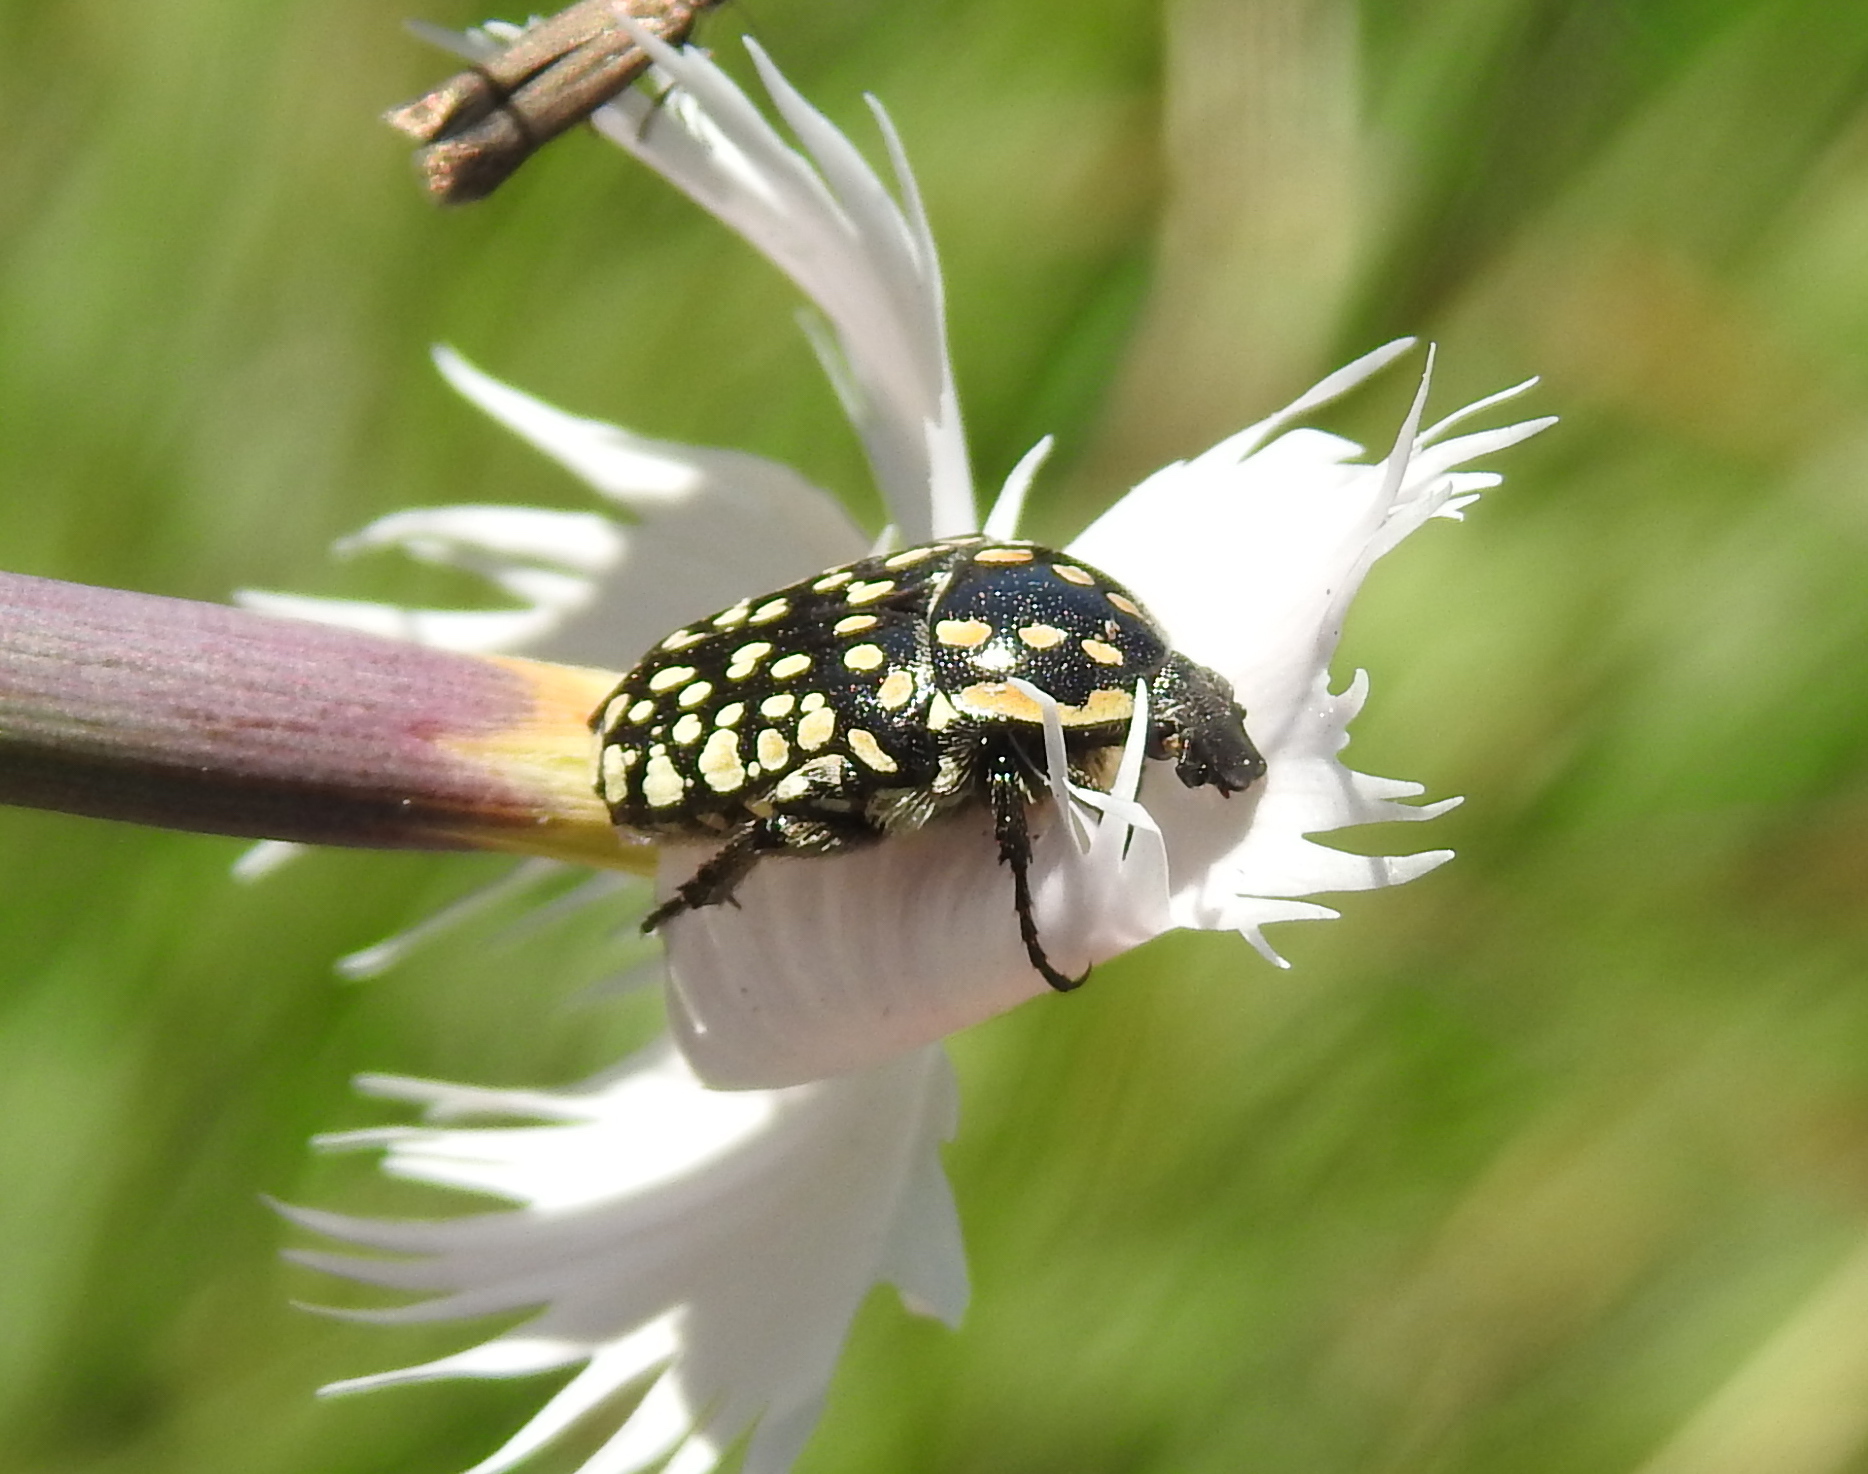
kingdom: Animalia
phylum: Arthropoda
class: Insecta
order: Coleoptera
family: Scarabaeidae
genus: Cyrtothyrea
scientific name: Cyrtothyrea testaceoguttata
